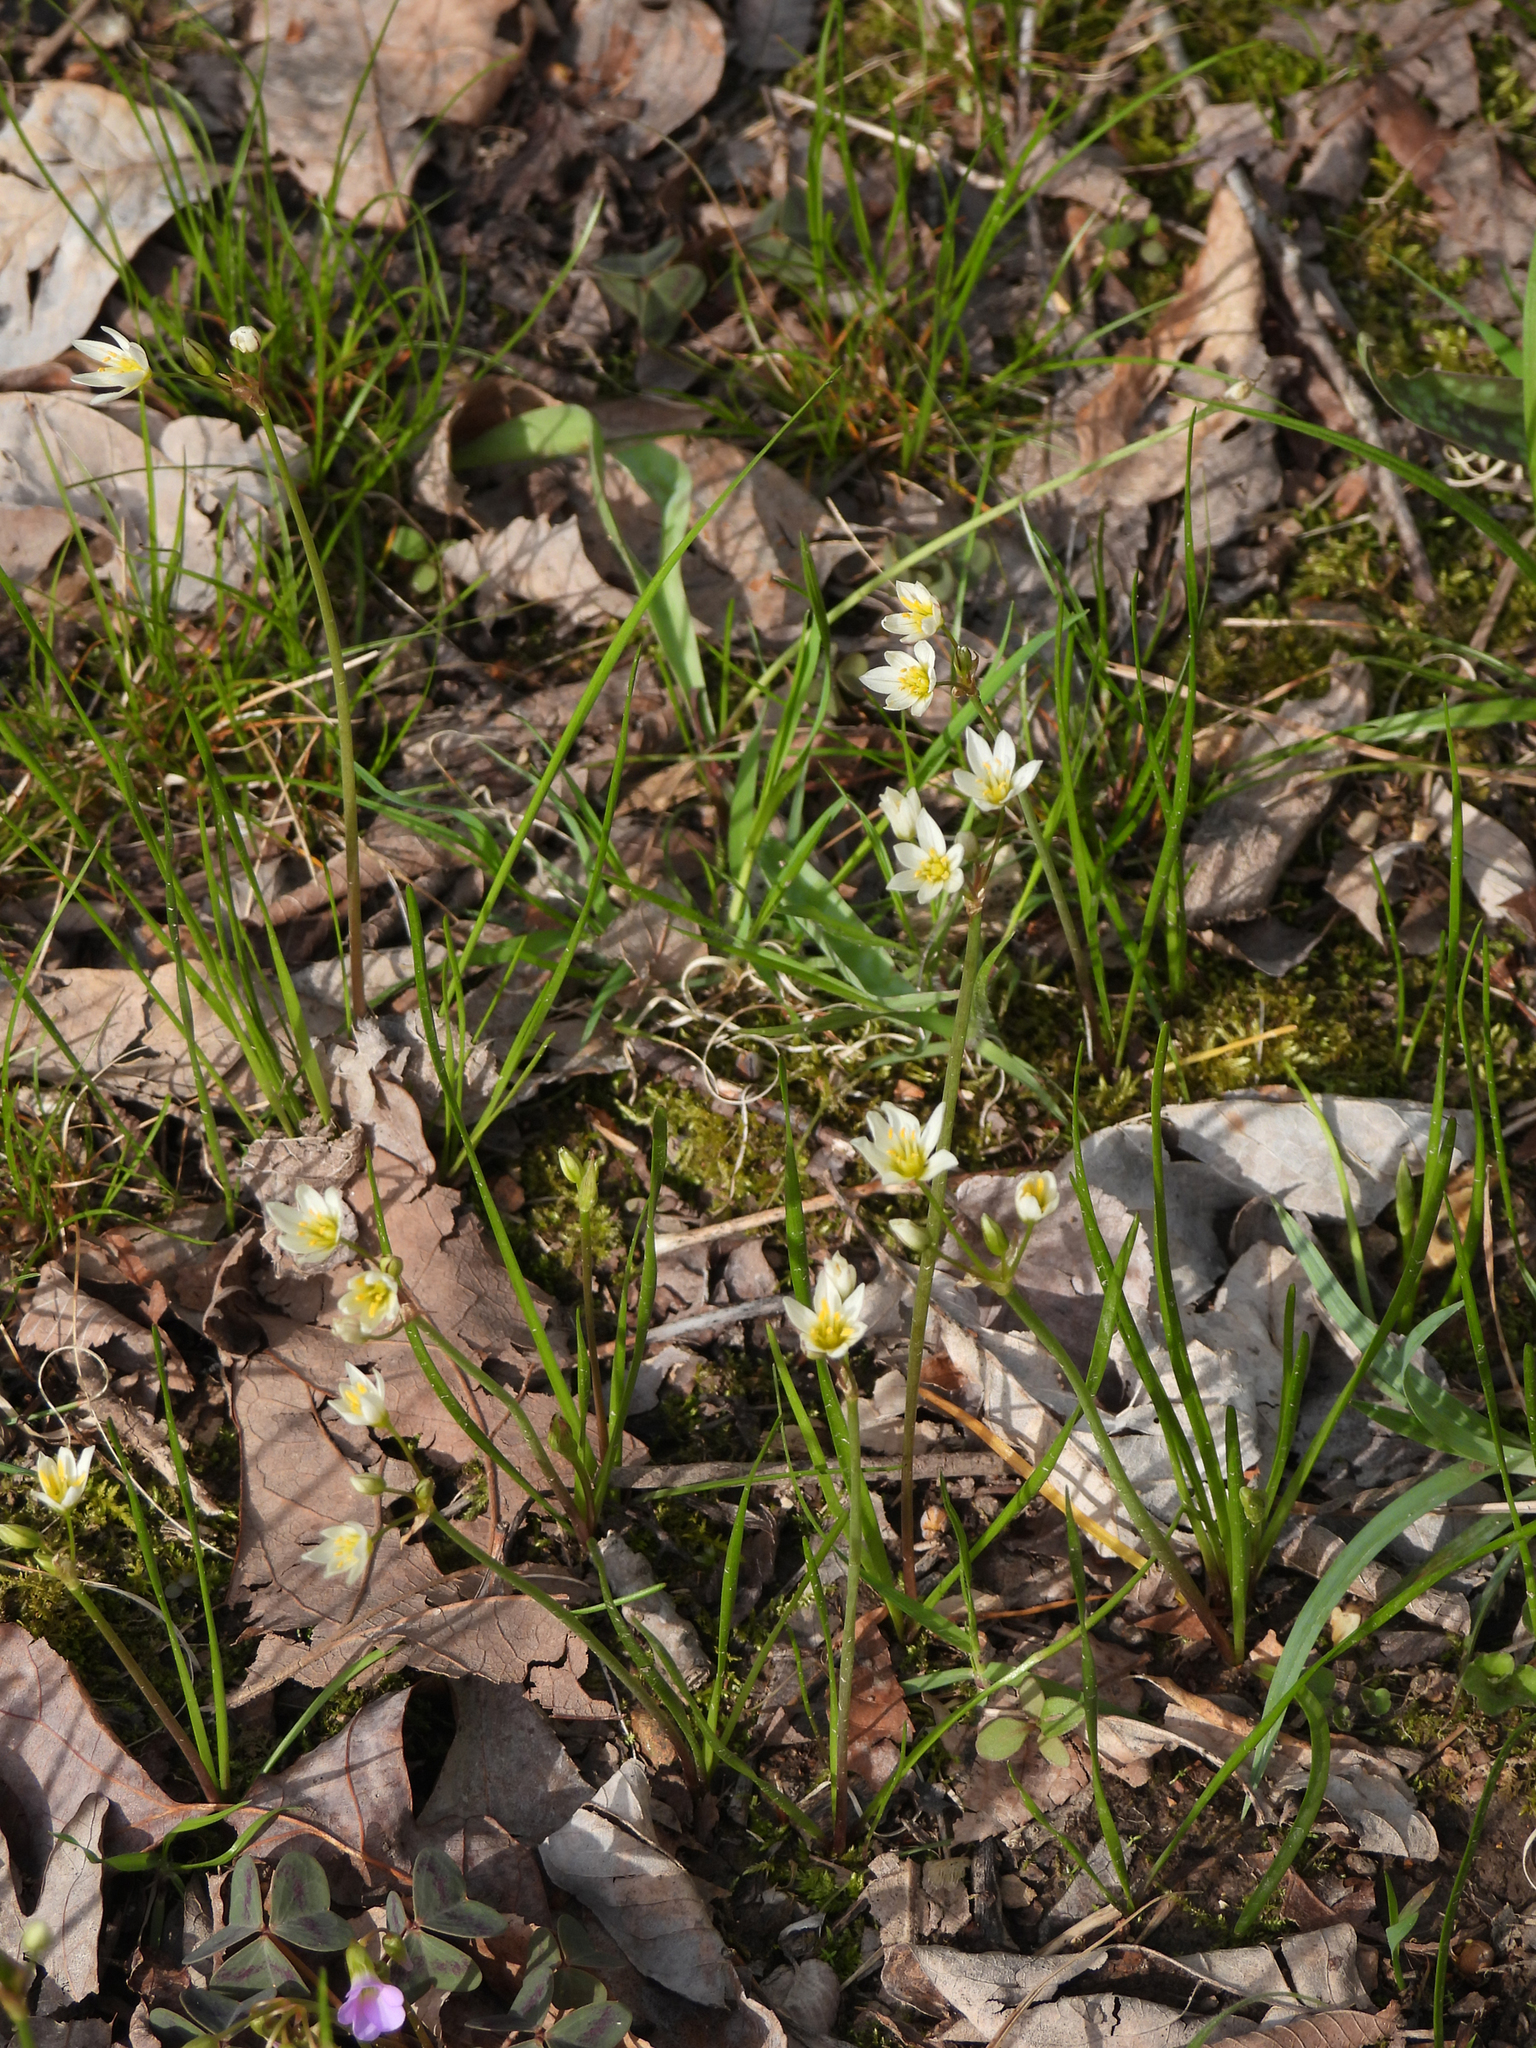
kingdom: Plantae
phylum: Tracheophyta
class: Liliopsida
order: Asparagales
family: Amaryllidaceae
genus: Nothoscordum
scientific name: Nothoscordum bivalve
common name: Crow-poison
